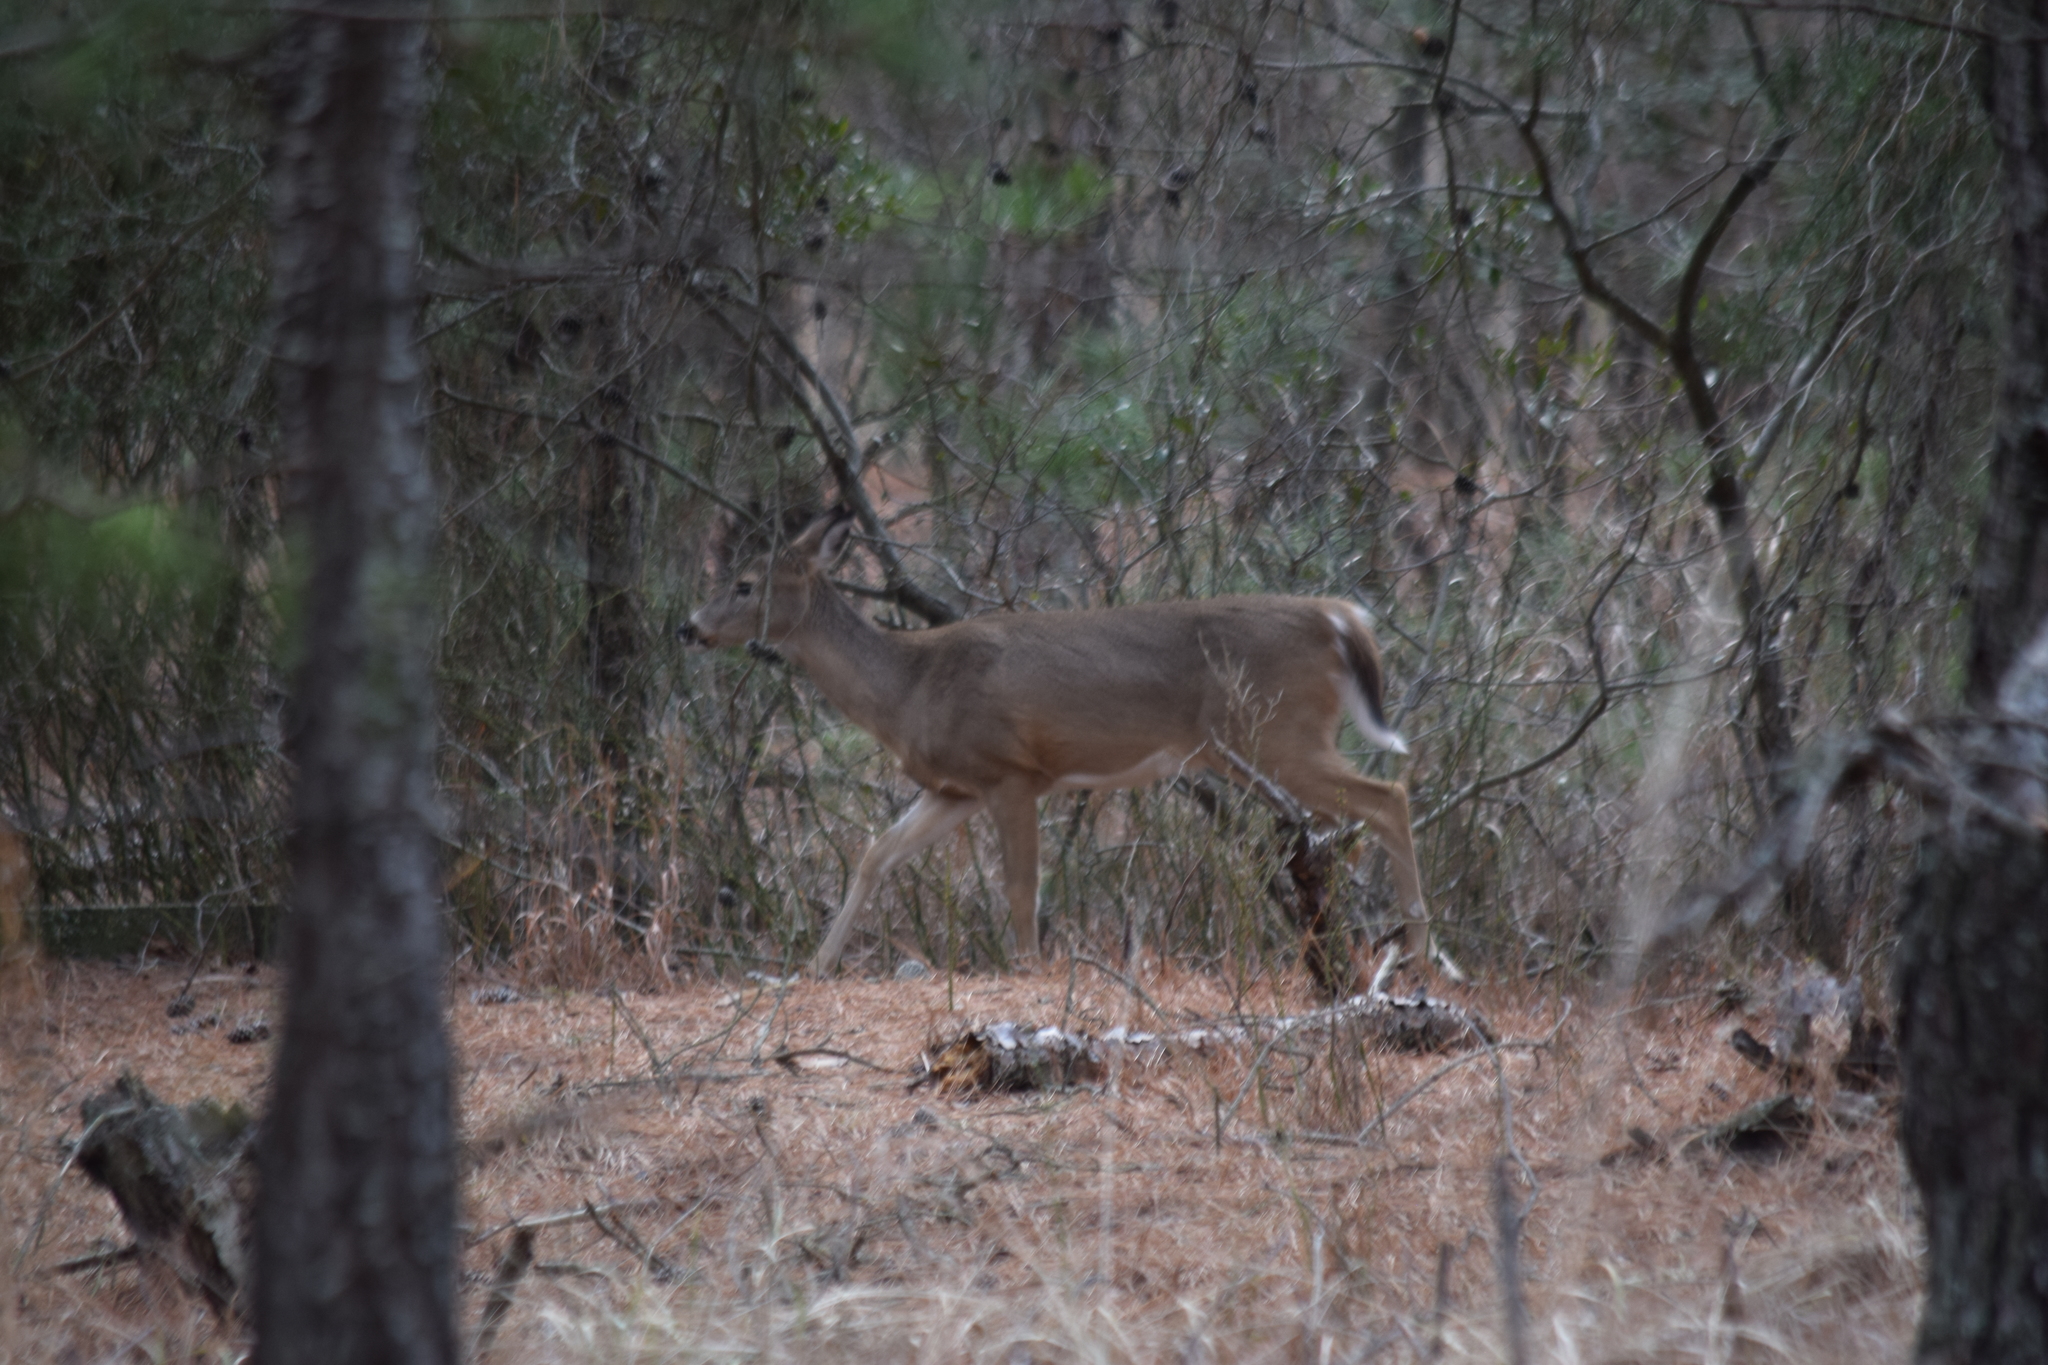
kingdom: Animalia
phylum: Chordata
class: Mammalia
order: Artiodactyla
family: Cervidae
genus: Odocoileus
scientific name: Odocoileus virginianus
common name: White-tailed deer
